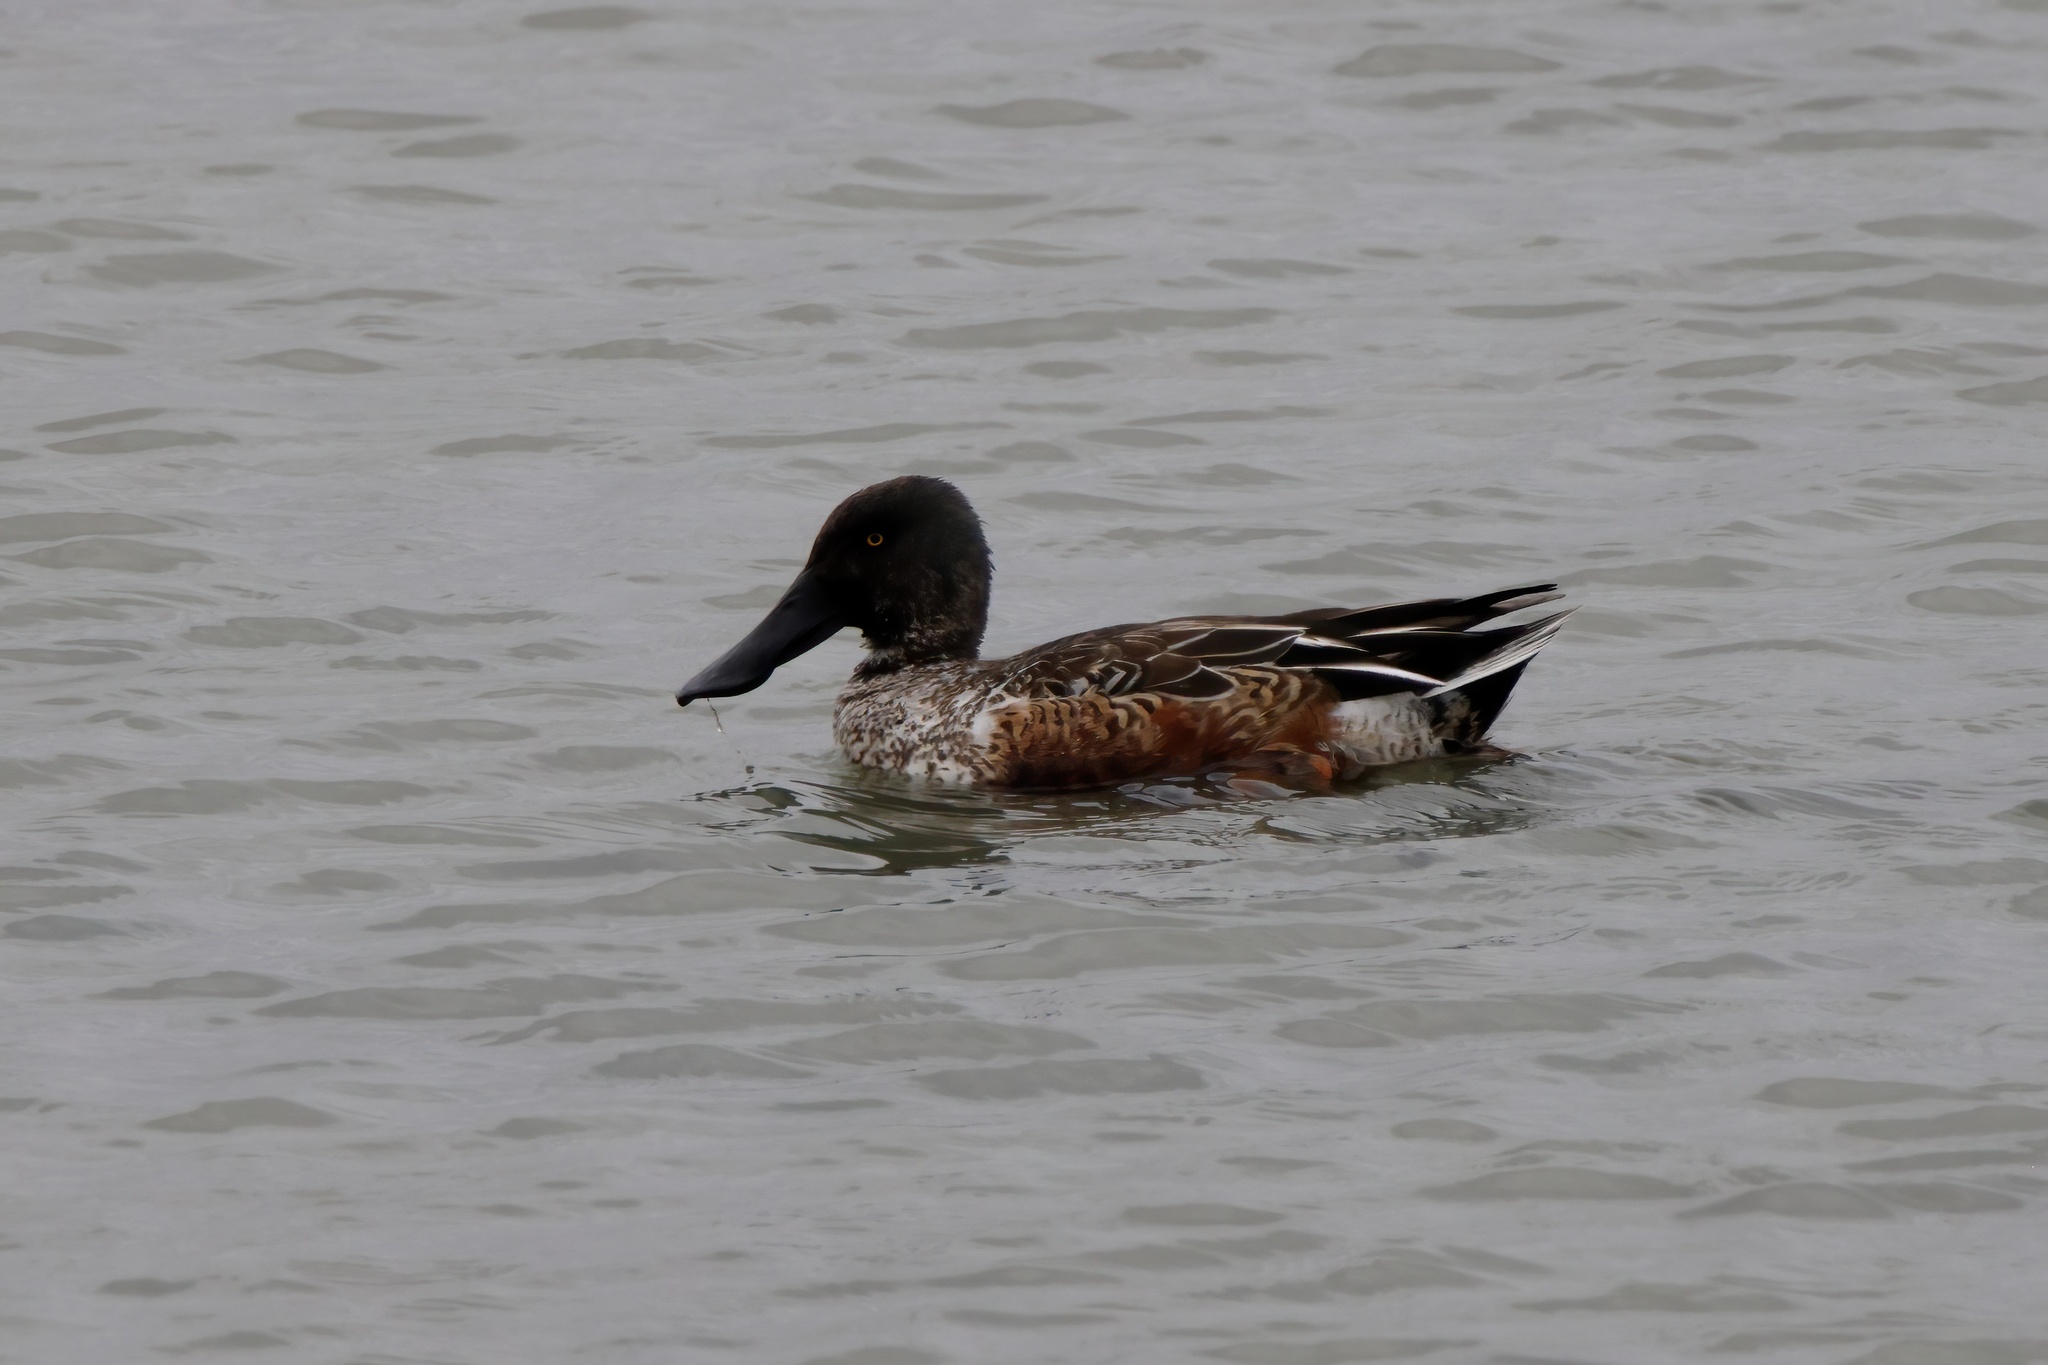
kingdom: Animalia
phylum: Chordata
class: Aves
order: Anseriformes
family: Anatidae
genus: Spatula
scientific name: Spatula clypeata
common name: Northern shoveler
